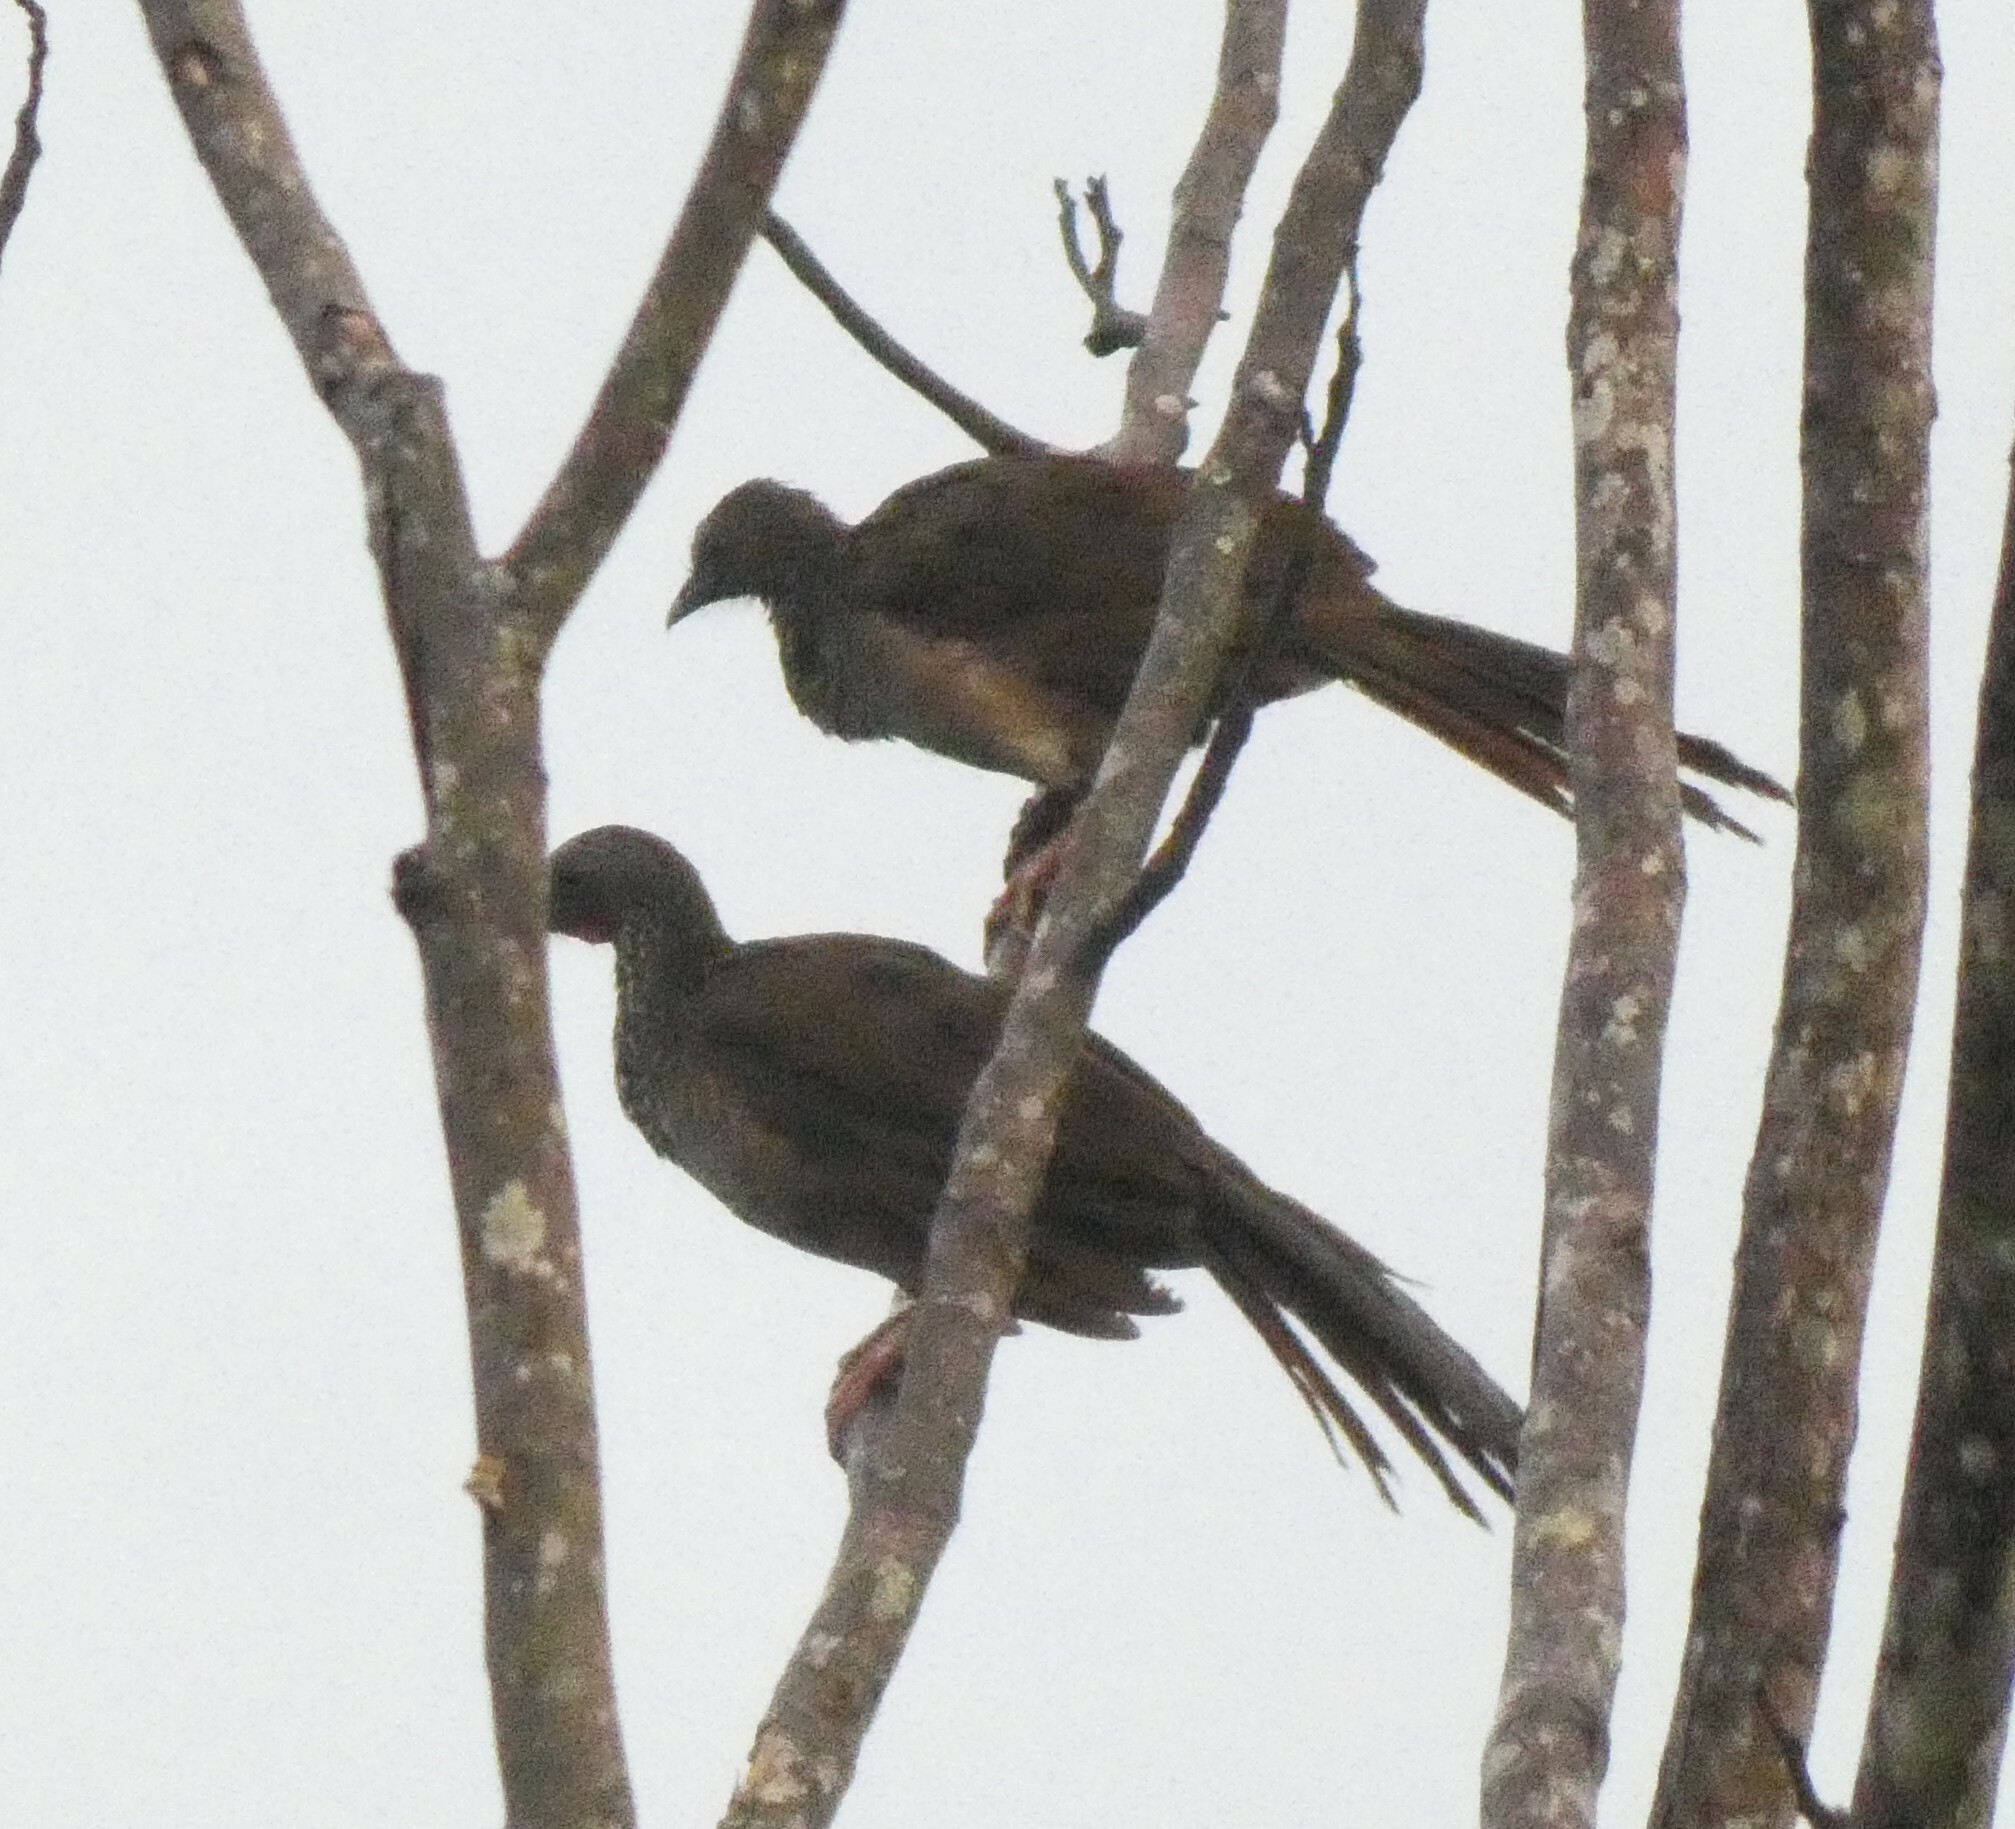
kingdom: Animalia
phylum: Chordata
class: Aves
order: Galliformes
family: Cracidae
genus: Ortalis
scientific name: Ortalis guttata
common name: Speckled chachalaca
